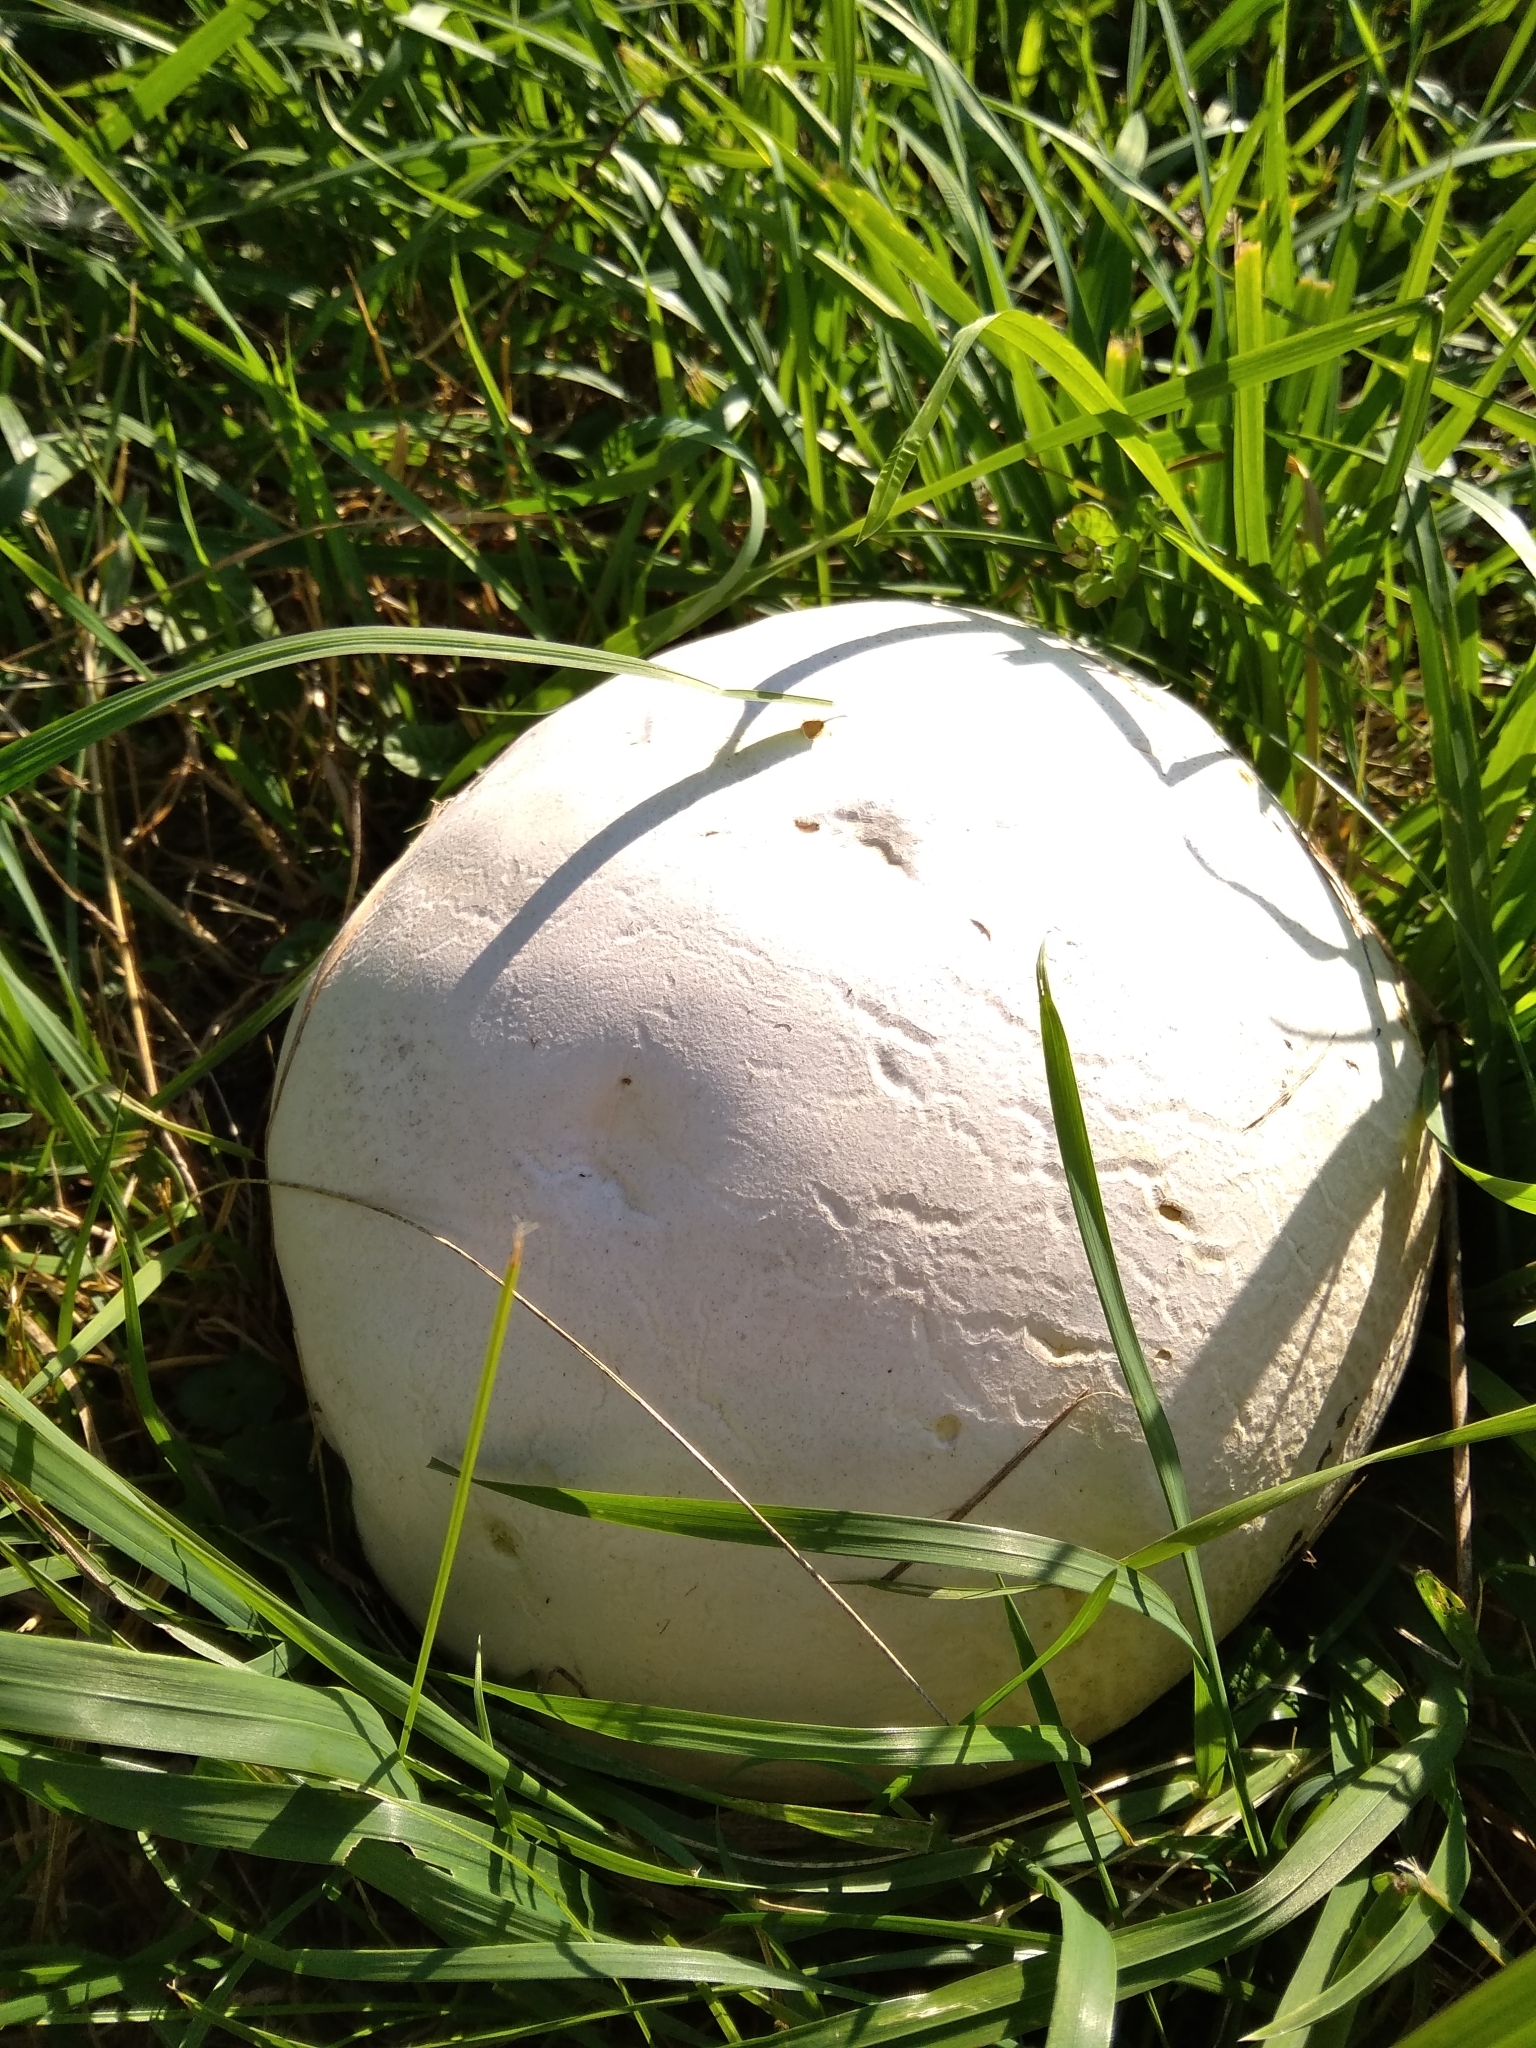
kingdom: Fungi
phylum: Basidiomycota
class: Agaricomycetes
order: Agaricales
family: Lycoperdaceae
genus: Calvatia
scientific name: Calvatia gigantea
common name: Giant puffball
